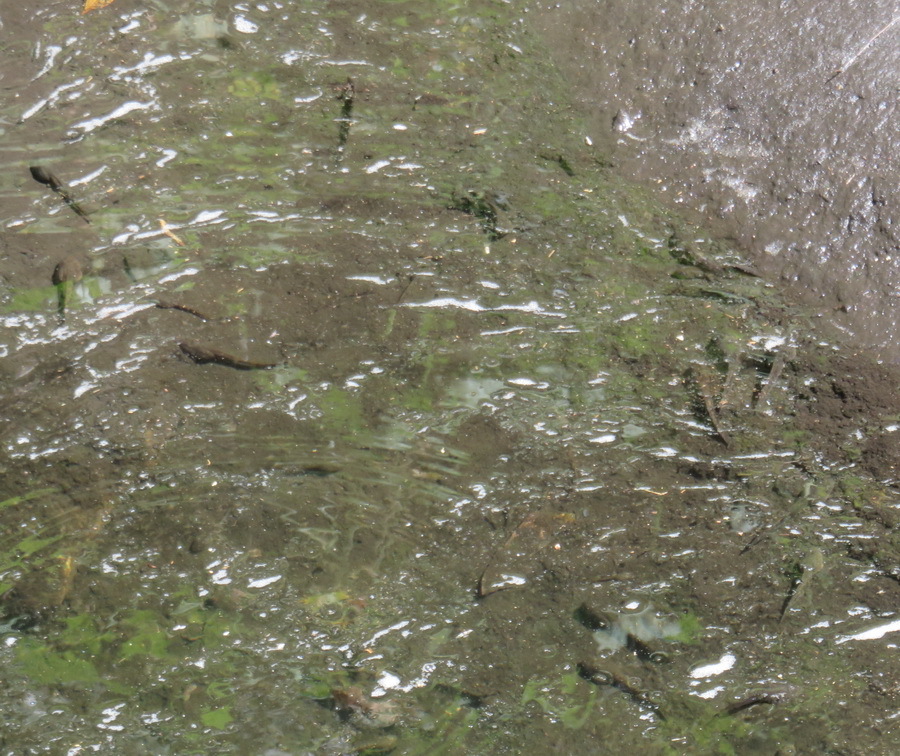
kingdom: Animalia
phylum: Chordata
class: Amphibia
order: Anura
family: Pyxicephalidae
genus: Amietia
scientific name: Amietia fuscigula
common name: Cape rana
